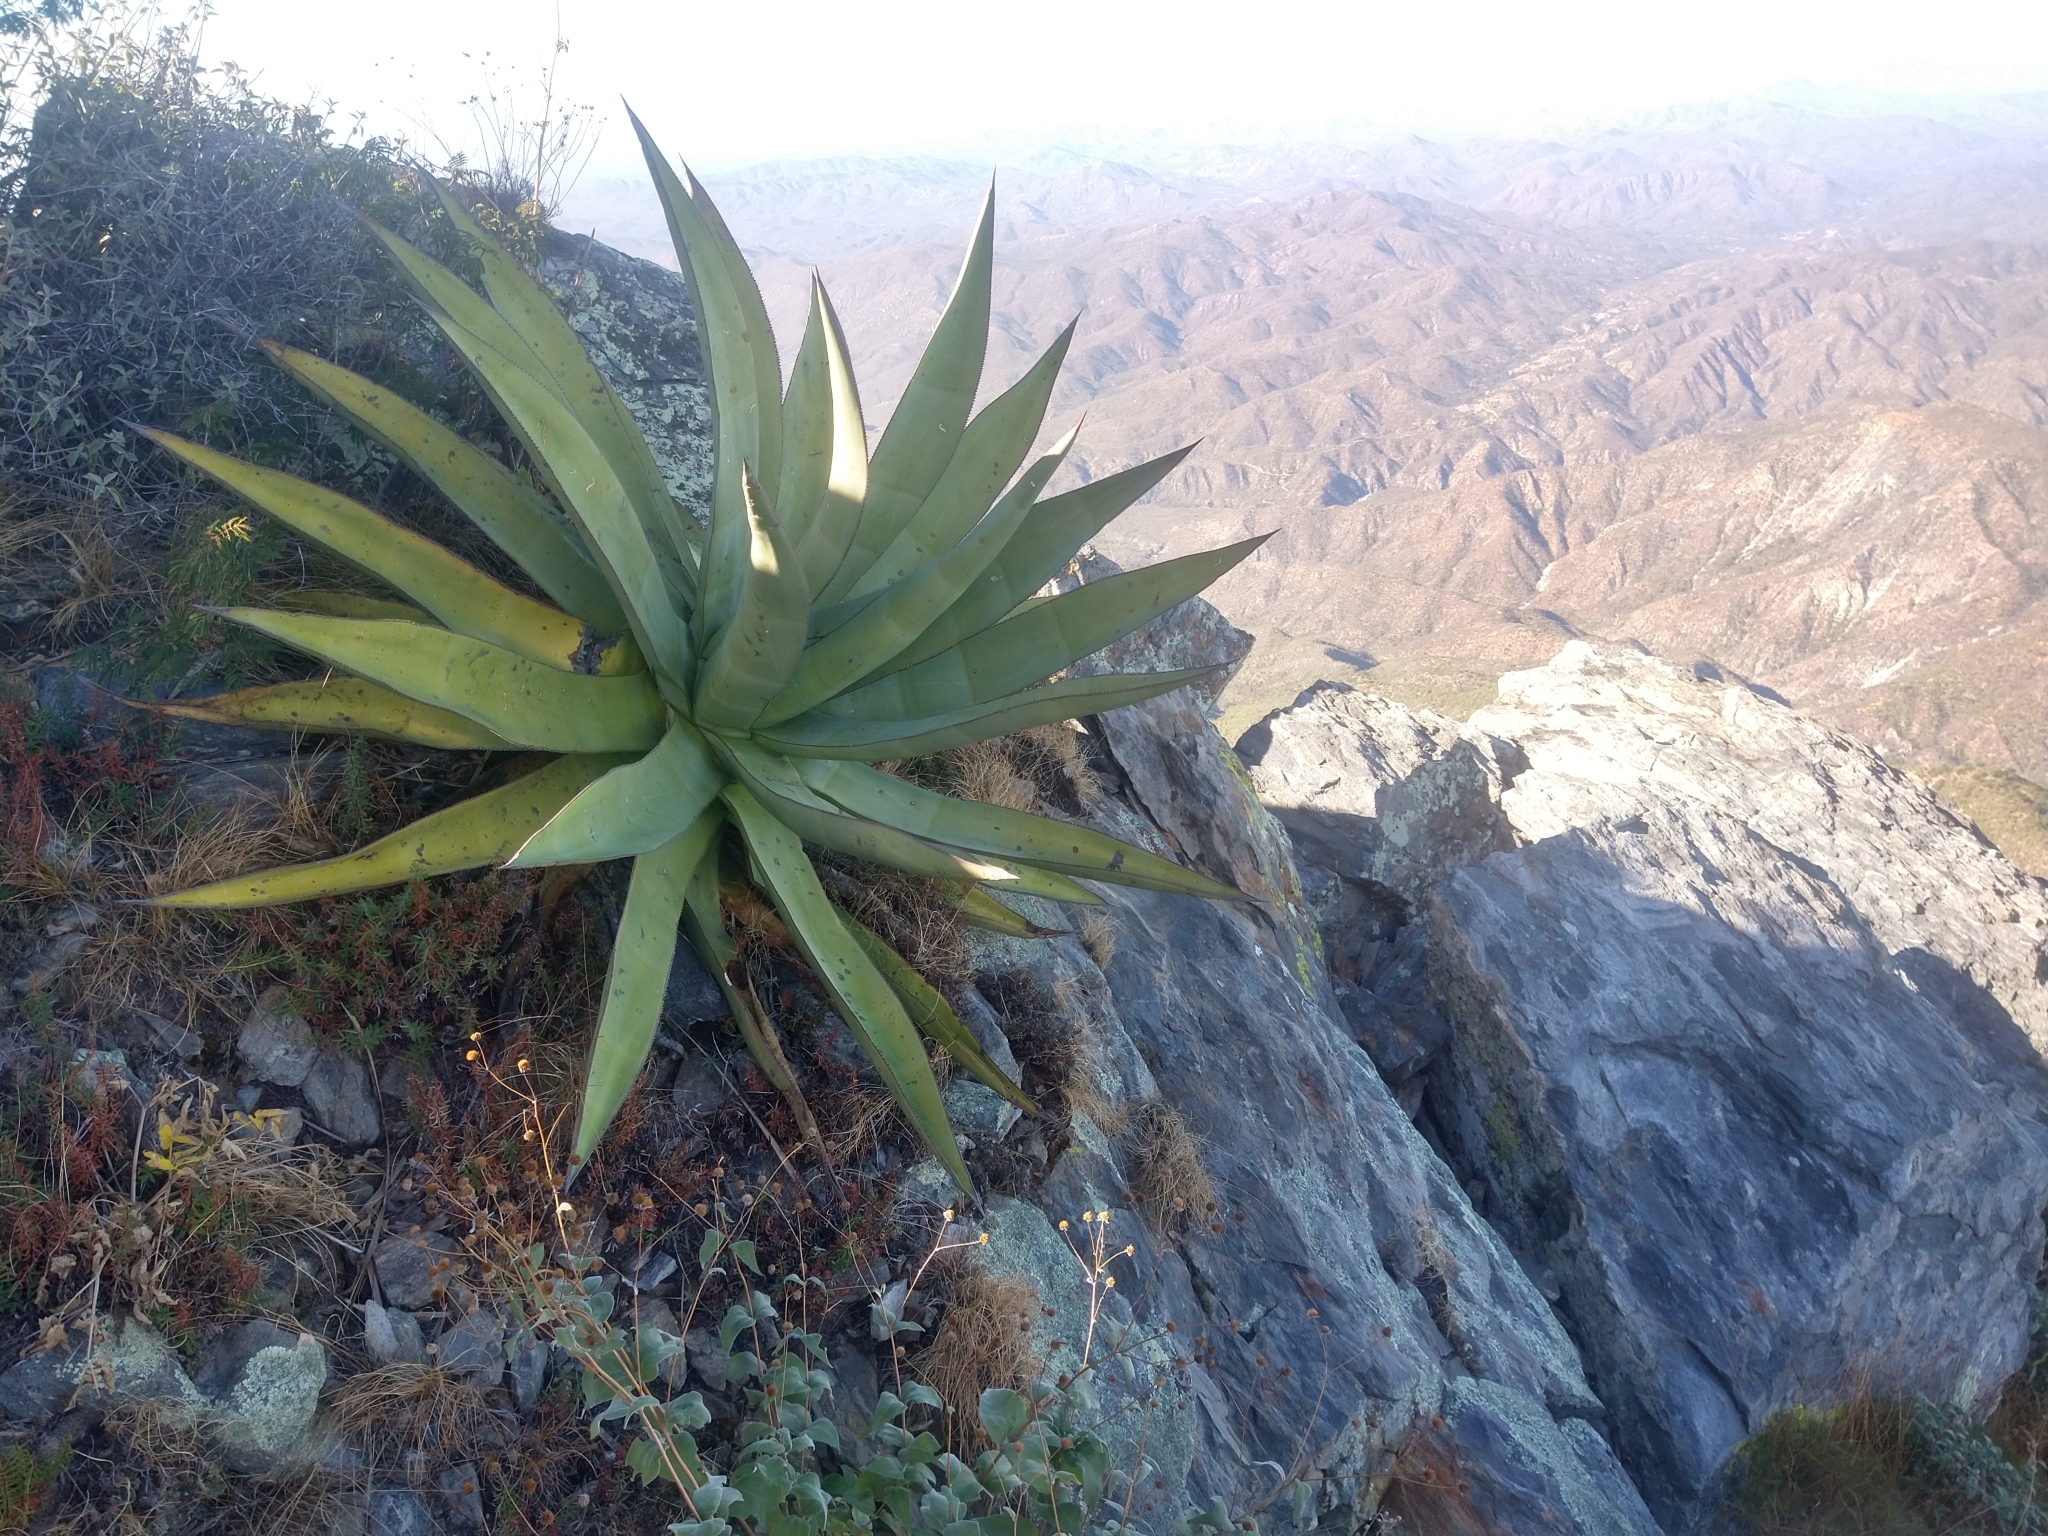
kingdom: Plantae
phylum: Tracheophyta
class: Liliopsida
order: Asparagales
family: Asparagaceae
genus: Agave
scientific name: Agave aurea
